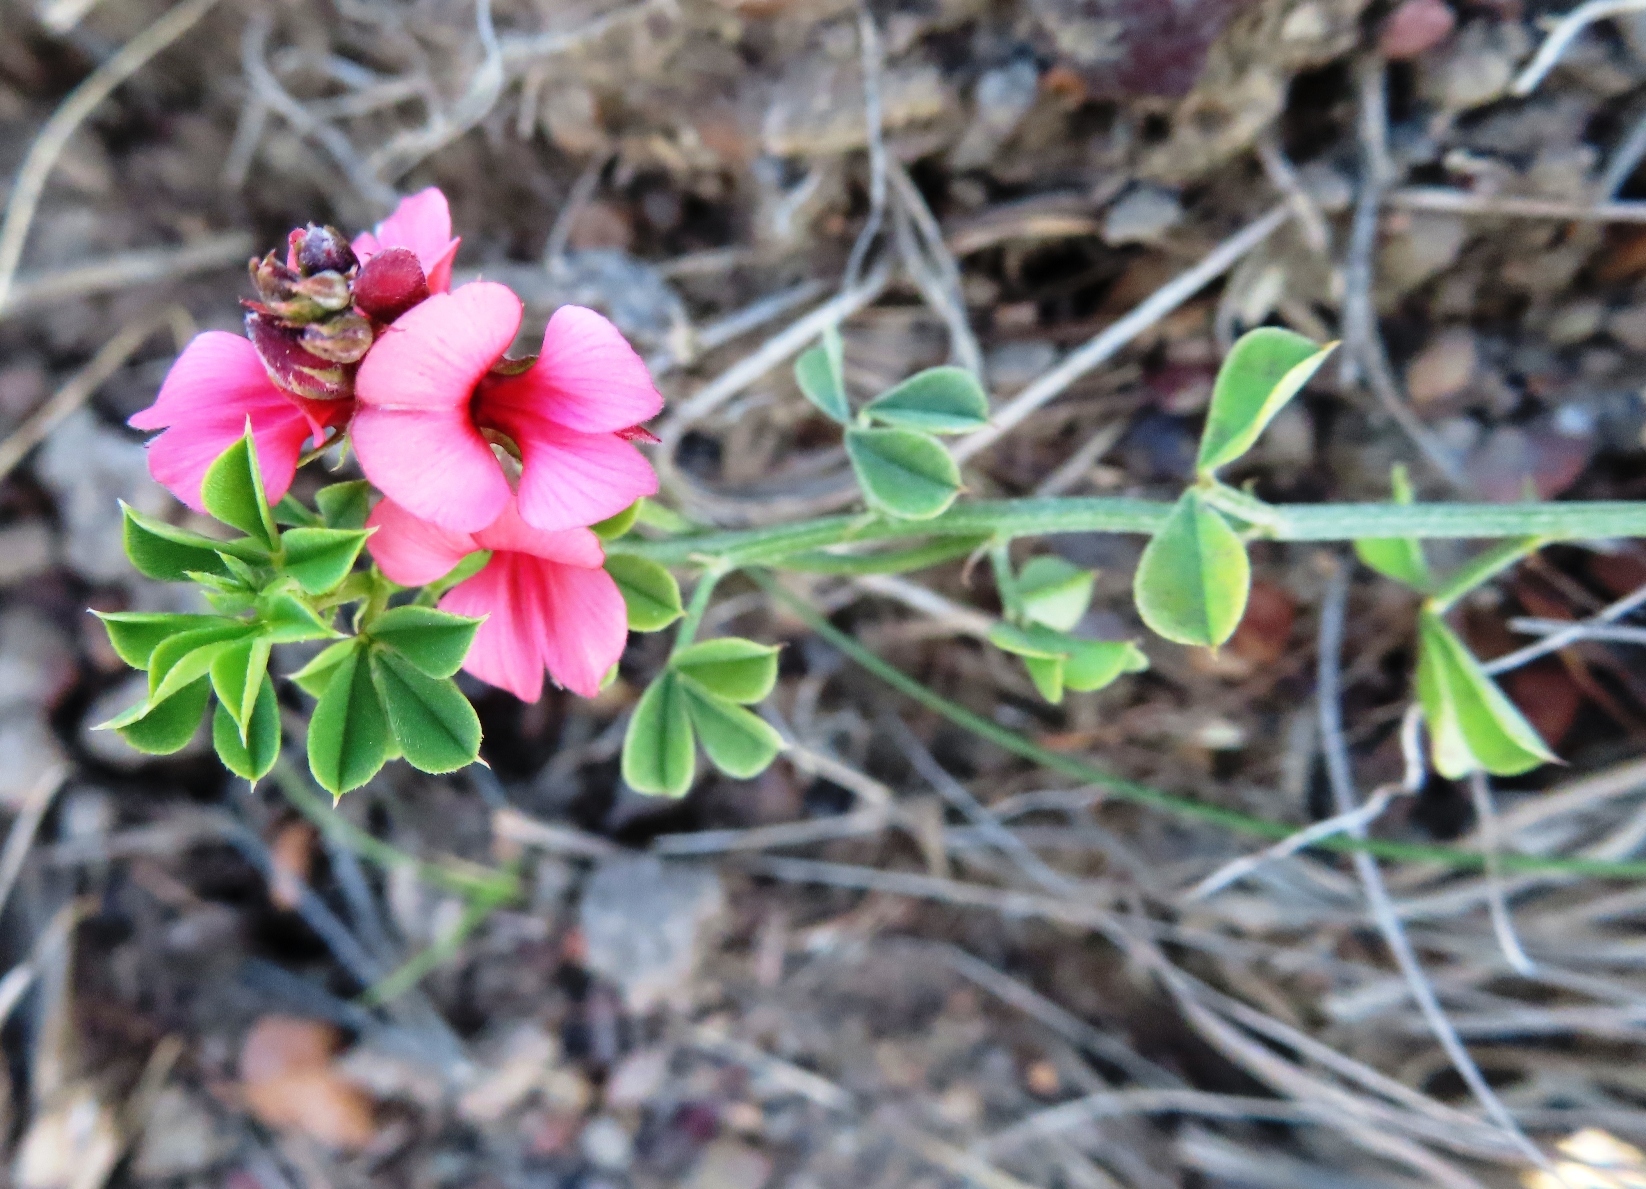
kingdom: Plantae
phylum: Tracheophyta
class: Magnoliopsida
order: Fabales
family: Fabaceae
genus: Indigofera
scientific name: Indigofera heterophylla
